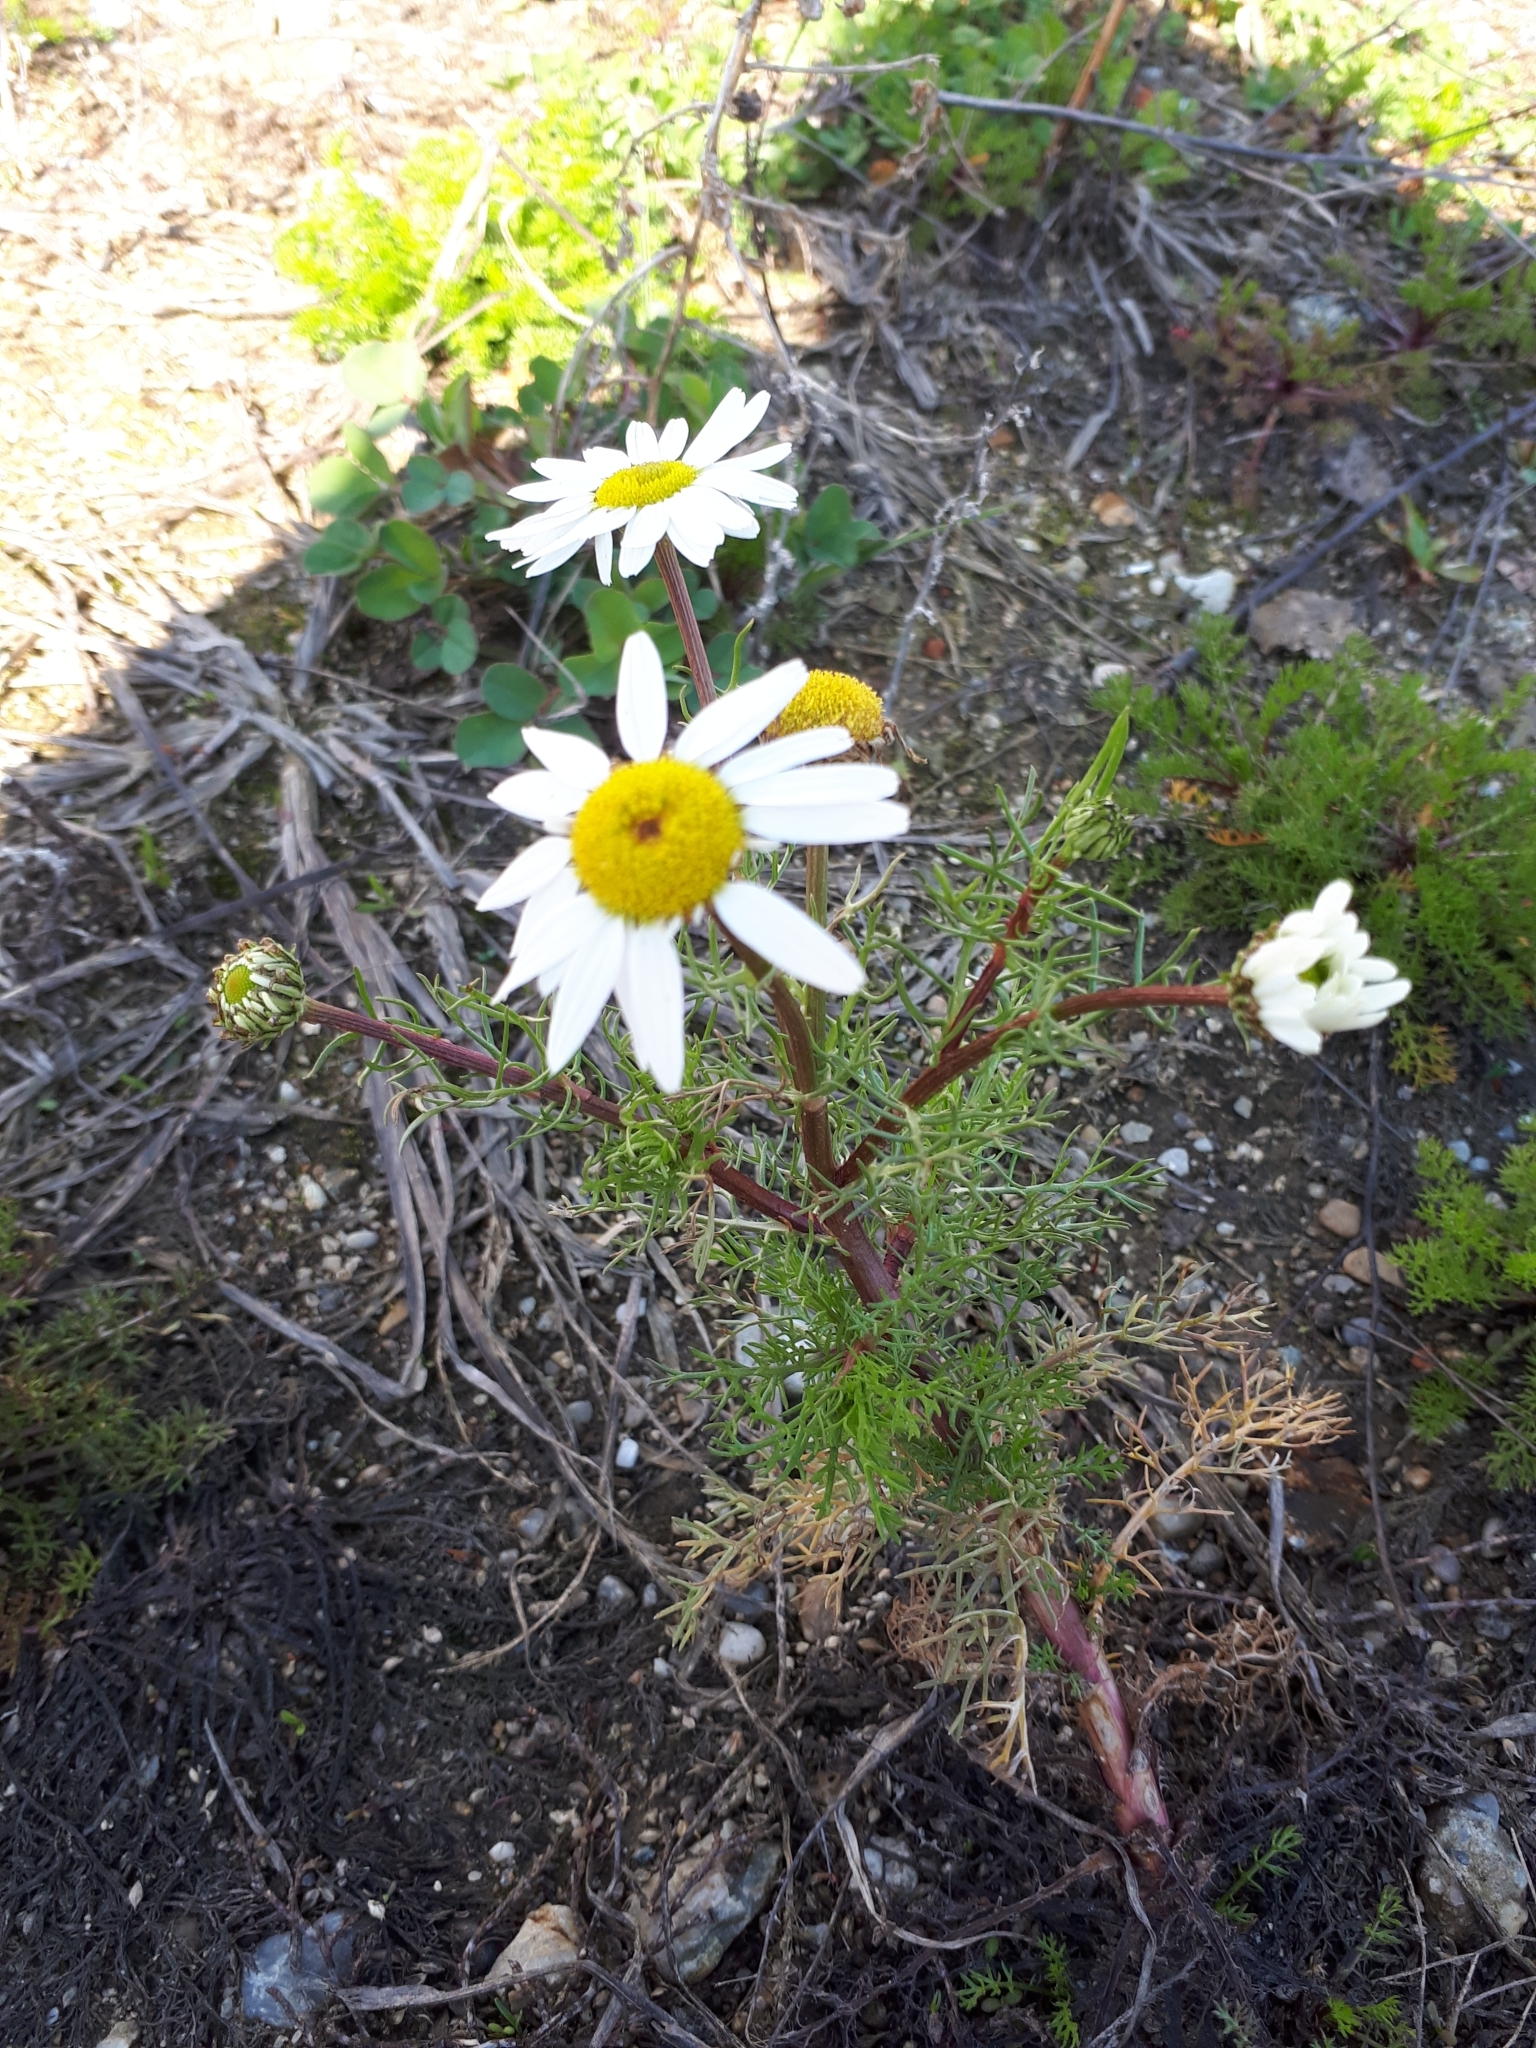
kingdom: Plantae
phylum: Tracheophyta
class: Magnoliopsida
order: Asterales
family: Asteraceae
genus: Tripleurospermum
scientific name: Tripleurospermum inodorum
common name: Scentless mayweed
